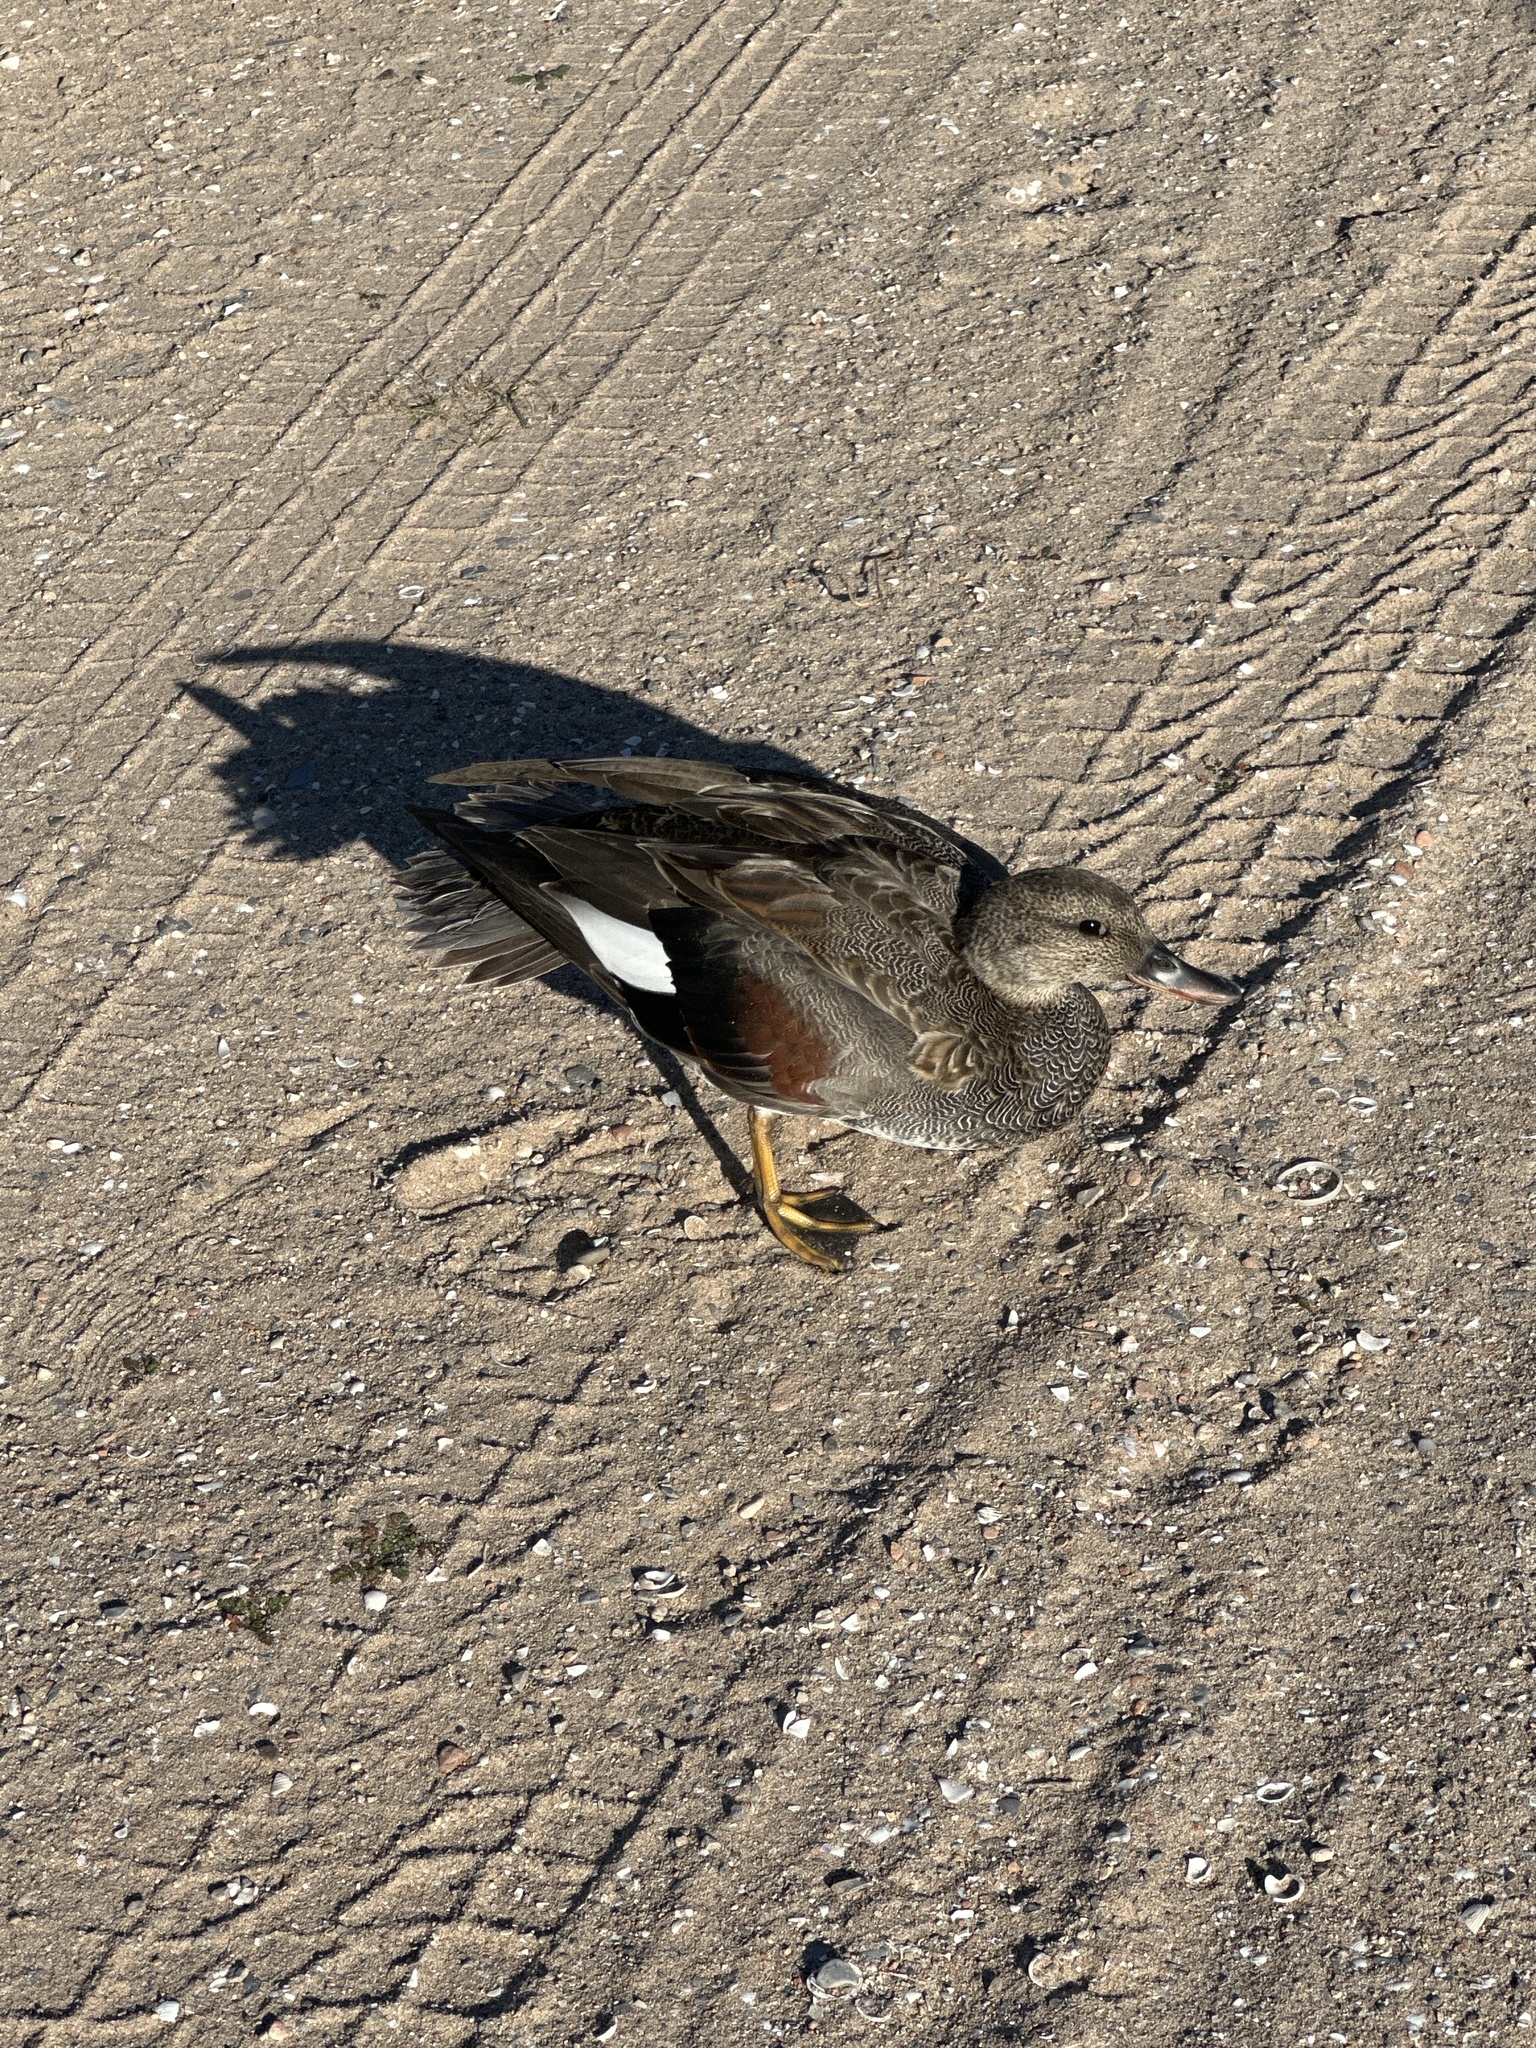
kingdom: Animalia
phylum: Chordata
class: Aves
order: Anseriformes
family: Anatidae
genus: Mareca
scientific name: Mareca strepera
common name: Gadwall
